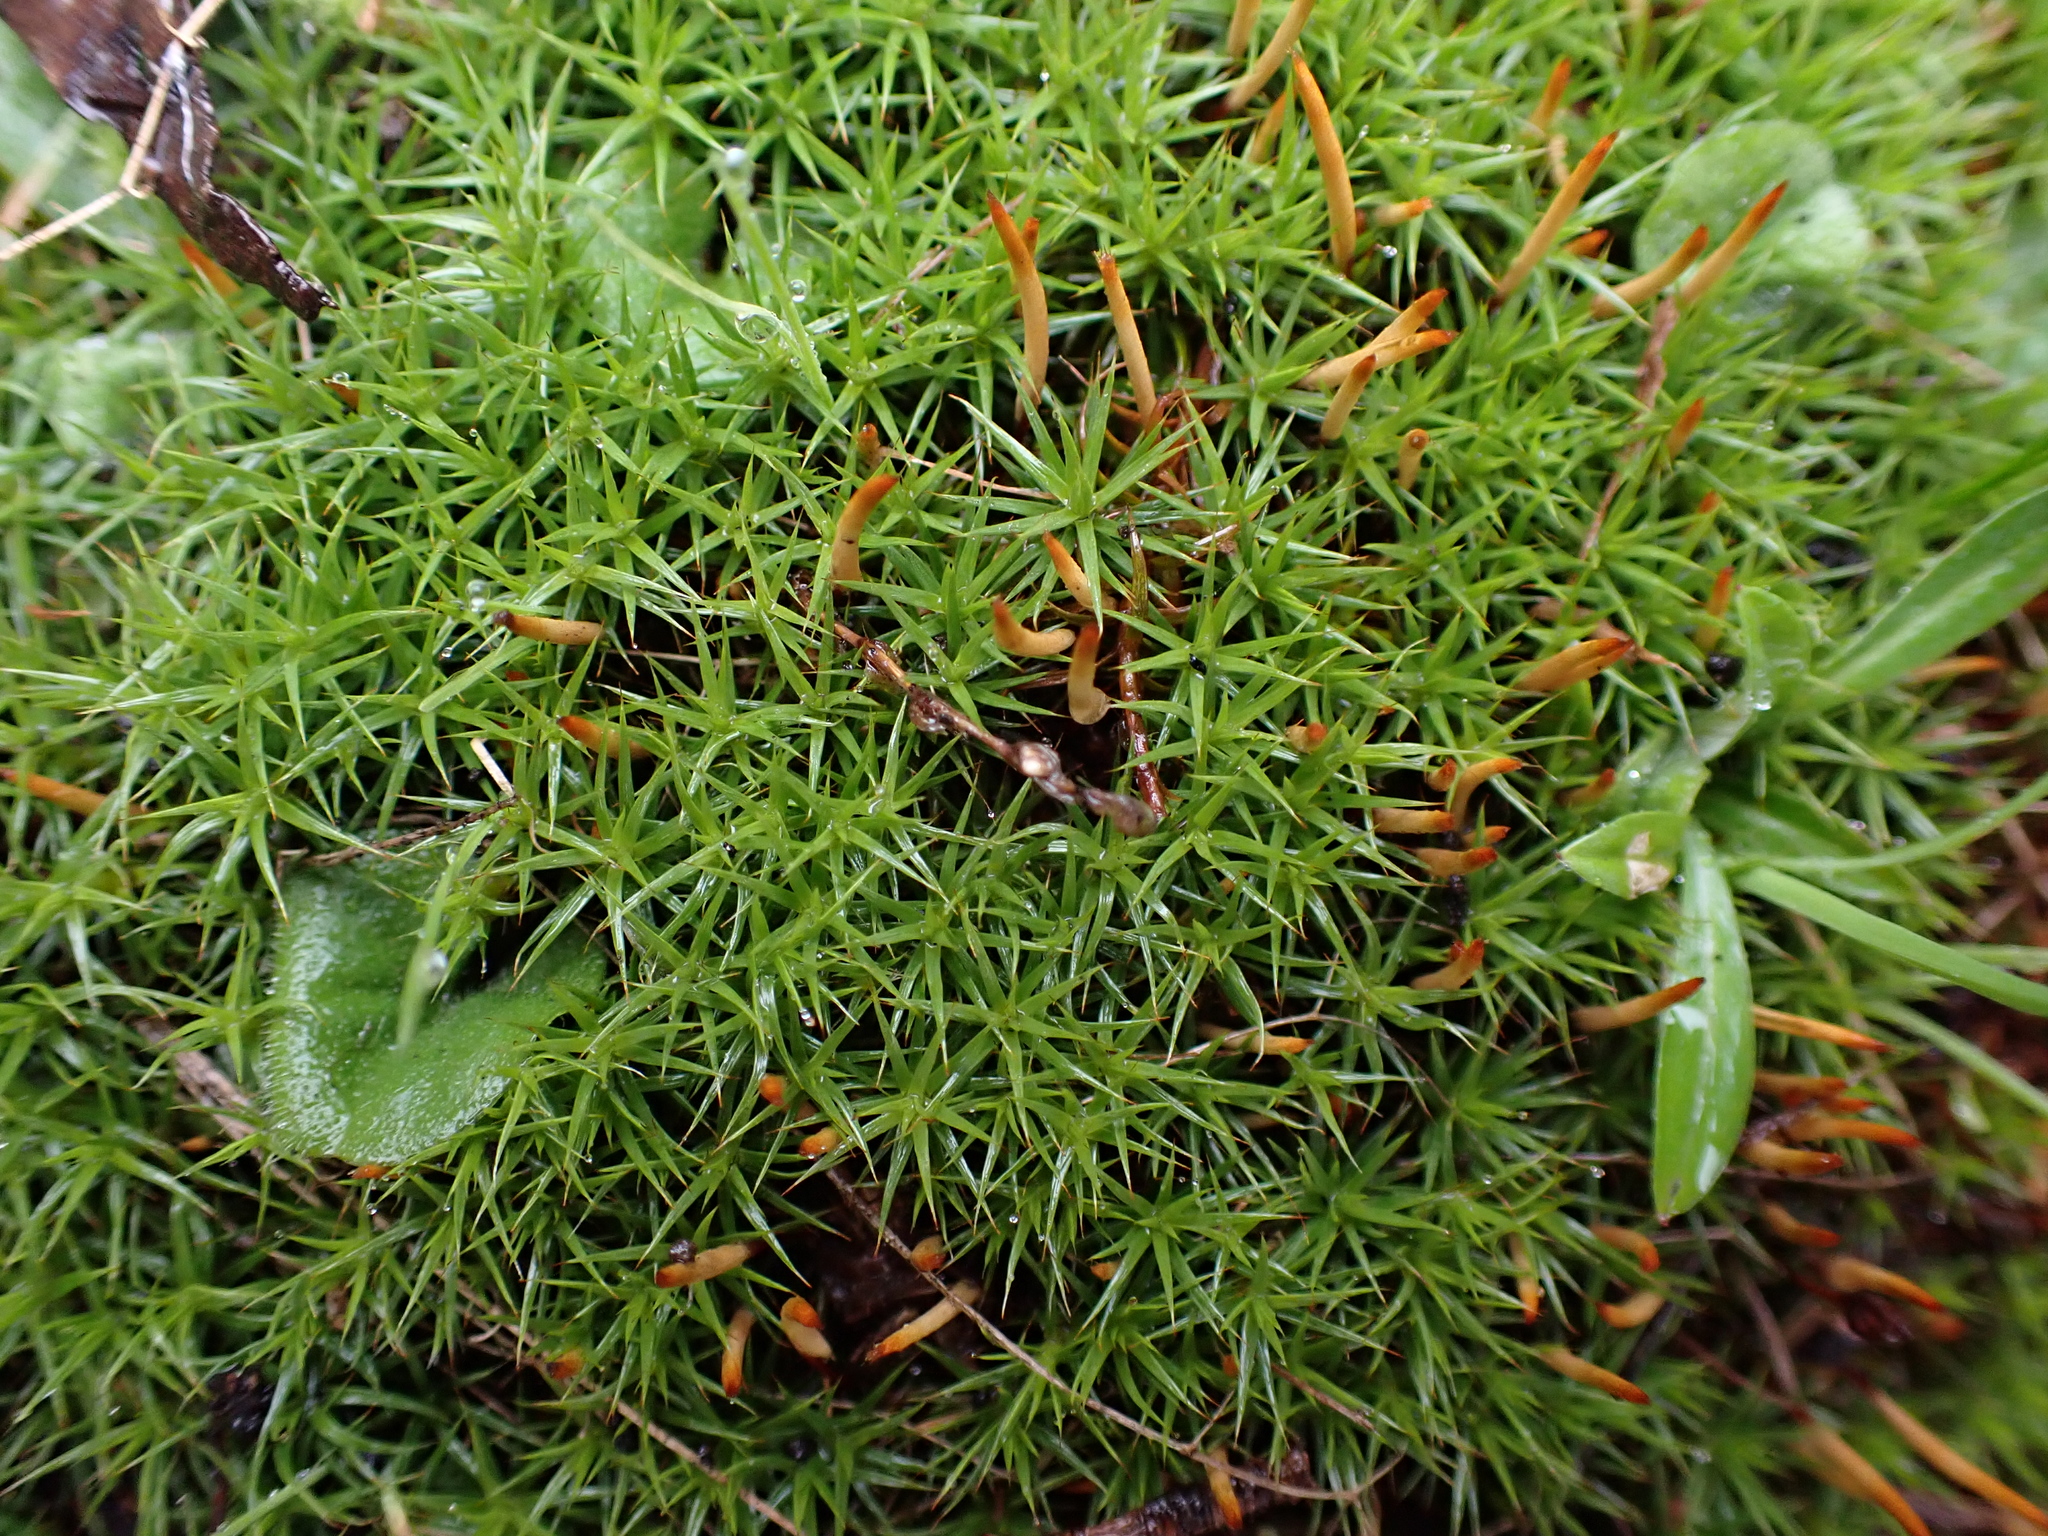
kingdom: Plantae
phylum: Bryophyta
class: Polytrichopsida
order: Polytrichales
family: Polytrichaceae
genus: Polytrichum
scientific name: Polytrichum juniperinum
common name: Juniper haircap moss
